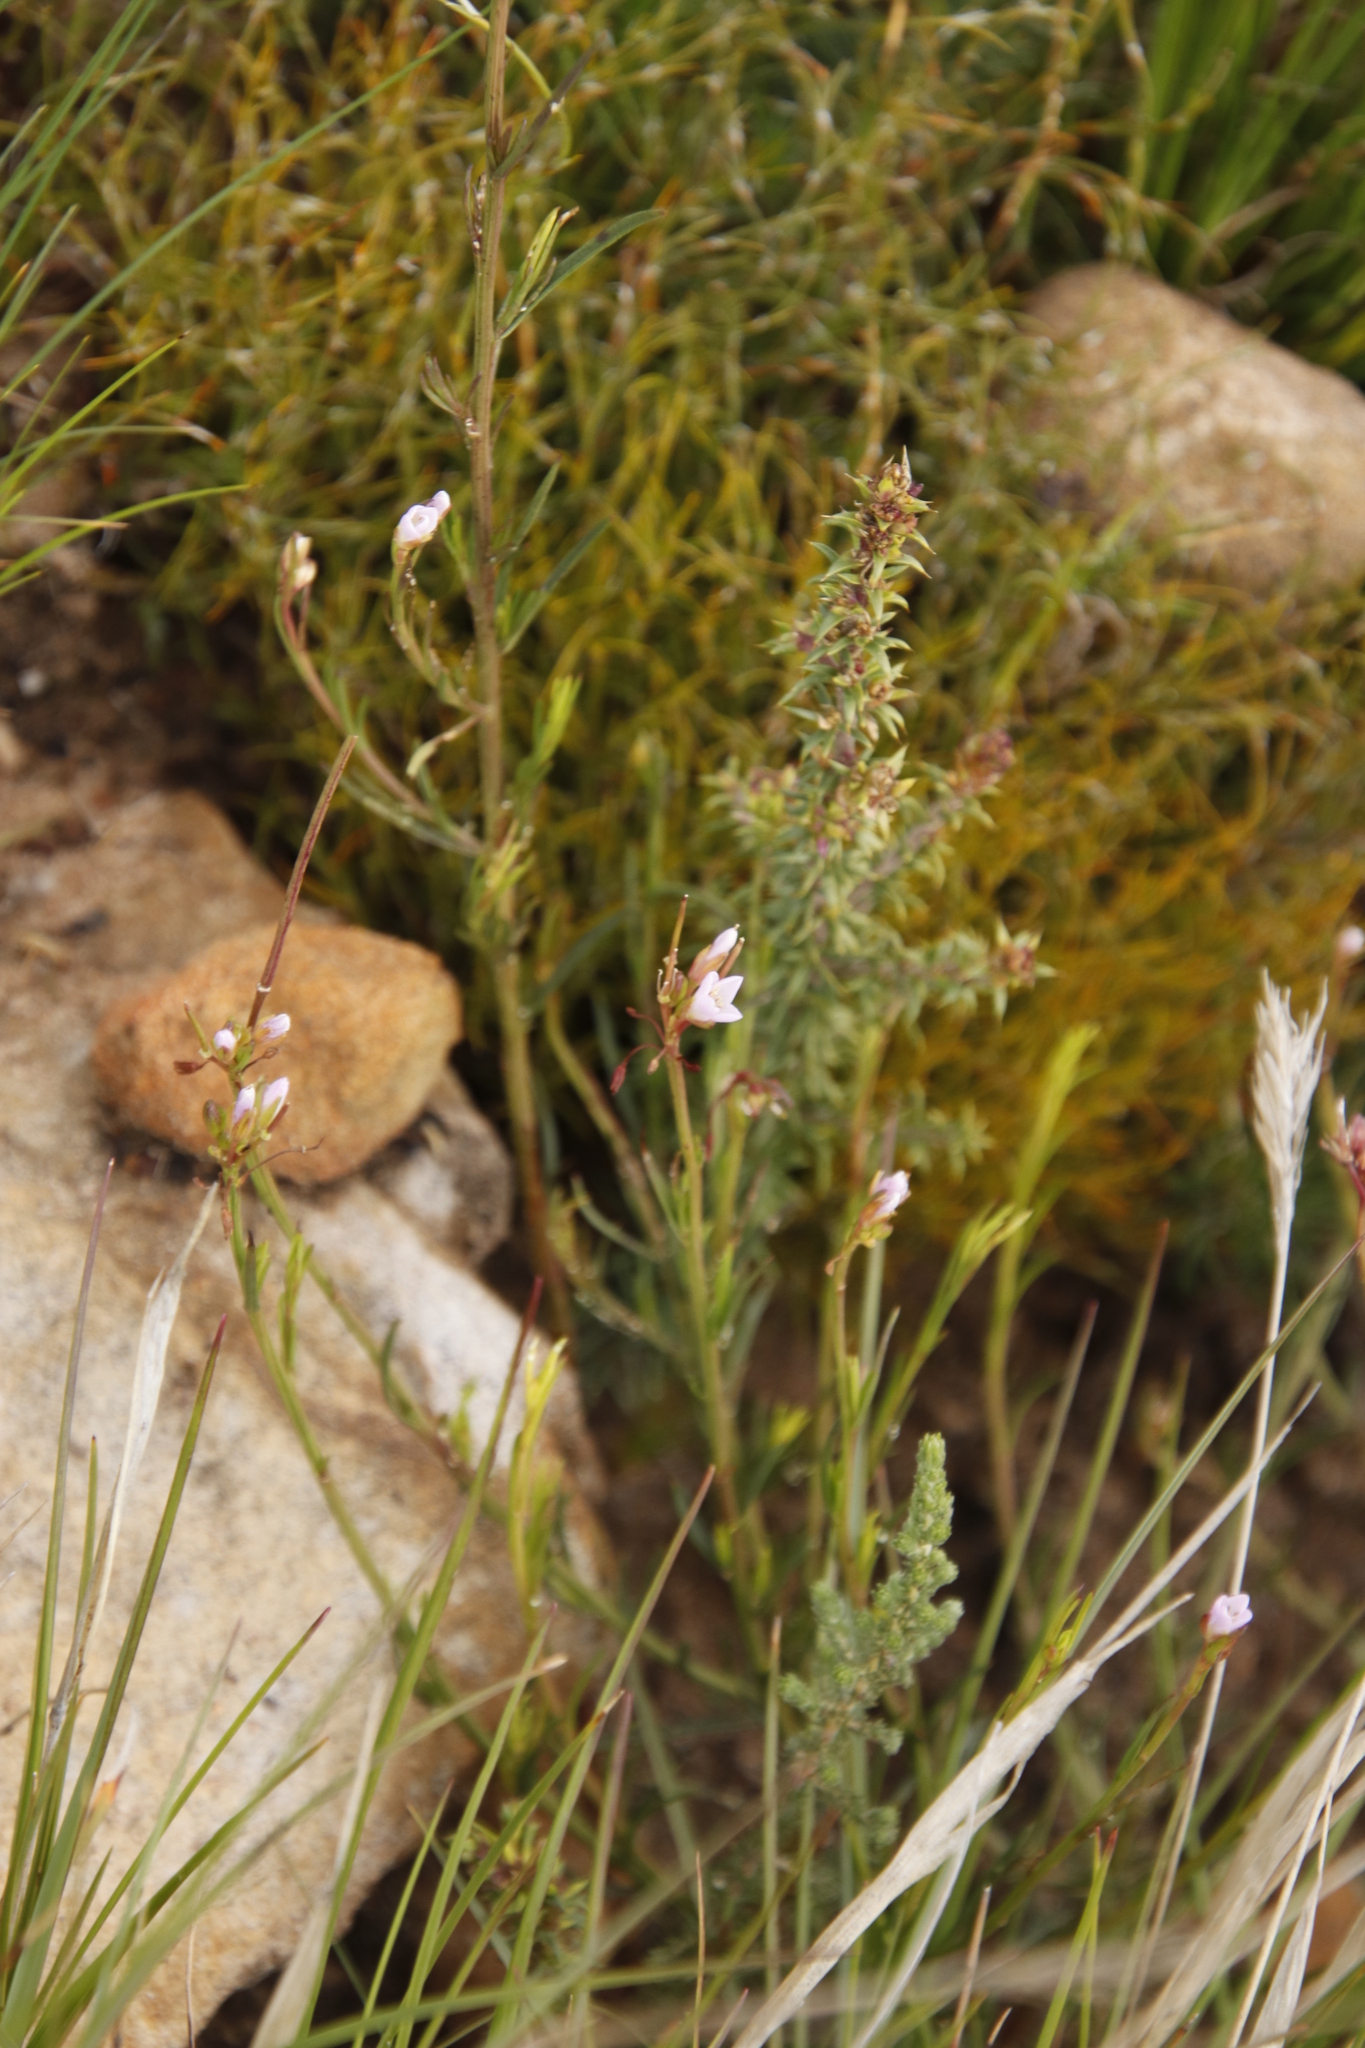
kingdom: Plantae
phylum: Tracheophyta
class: Magnoliopsida
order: Brassicales
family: Brassicaceae
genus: Heliophila
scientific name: Heliophila scoparia
